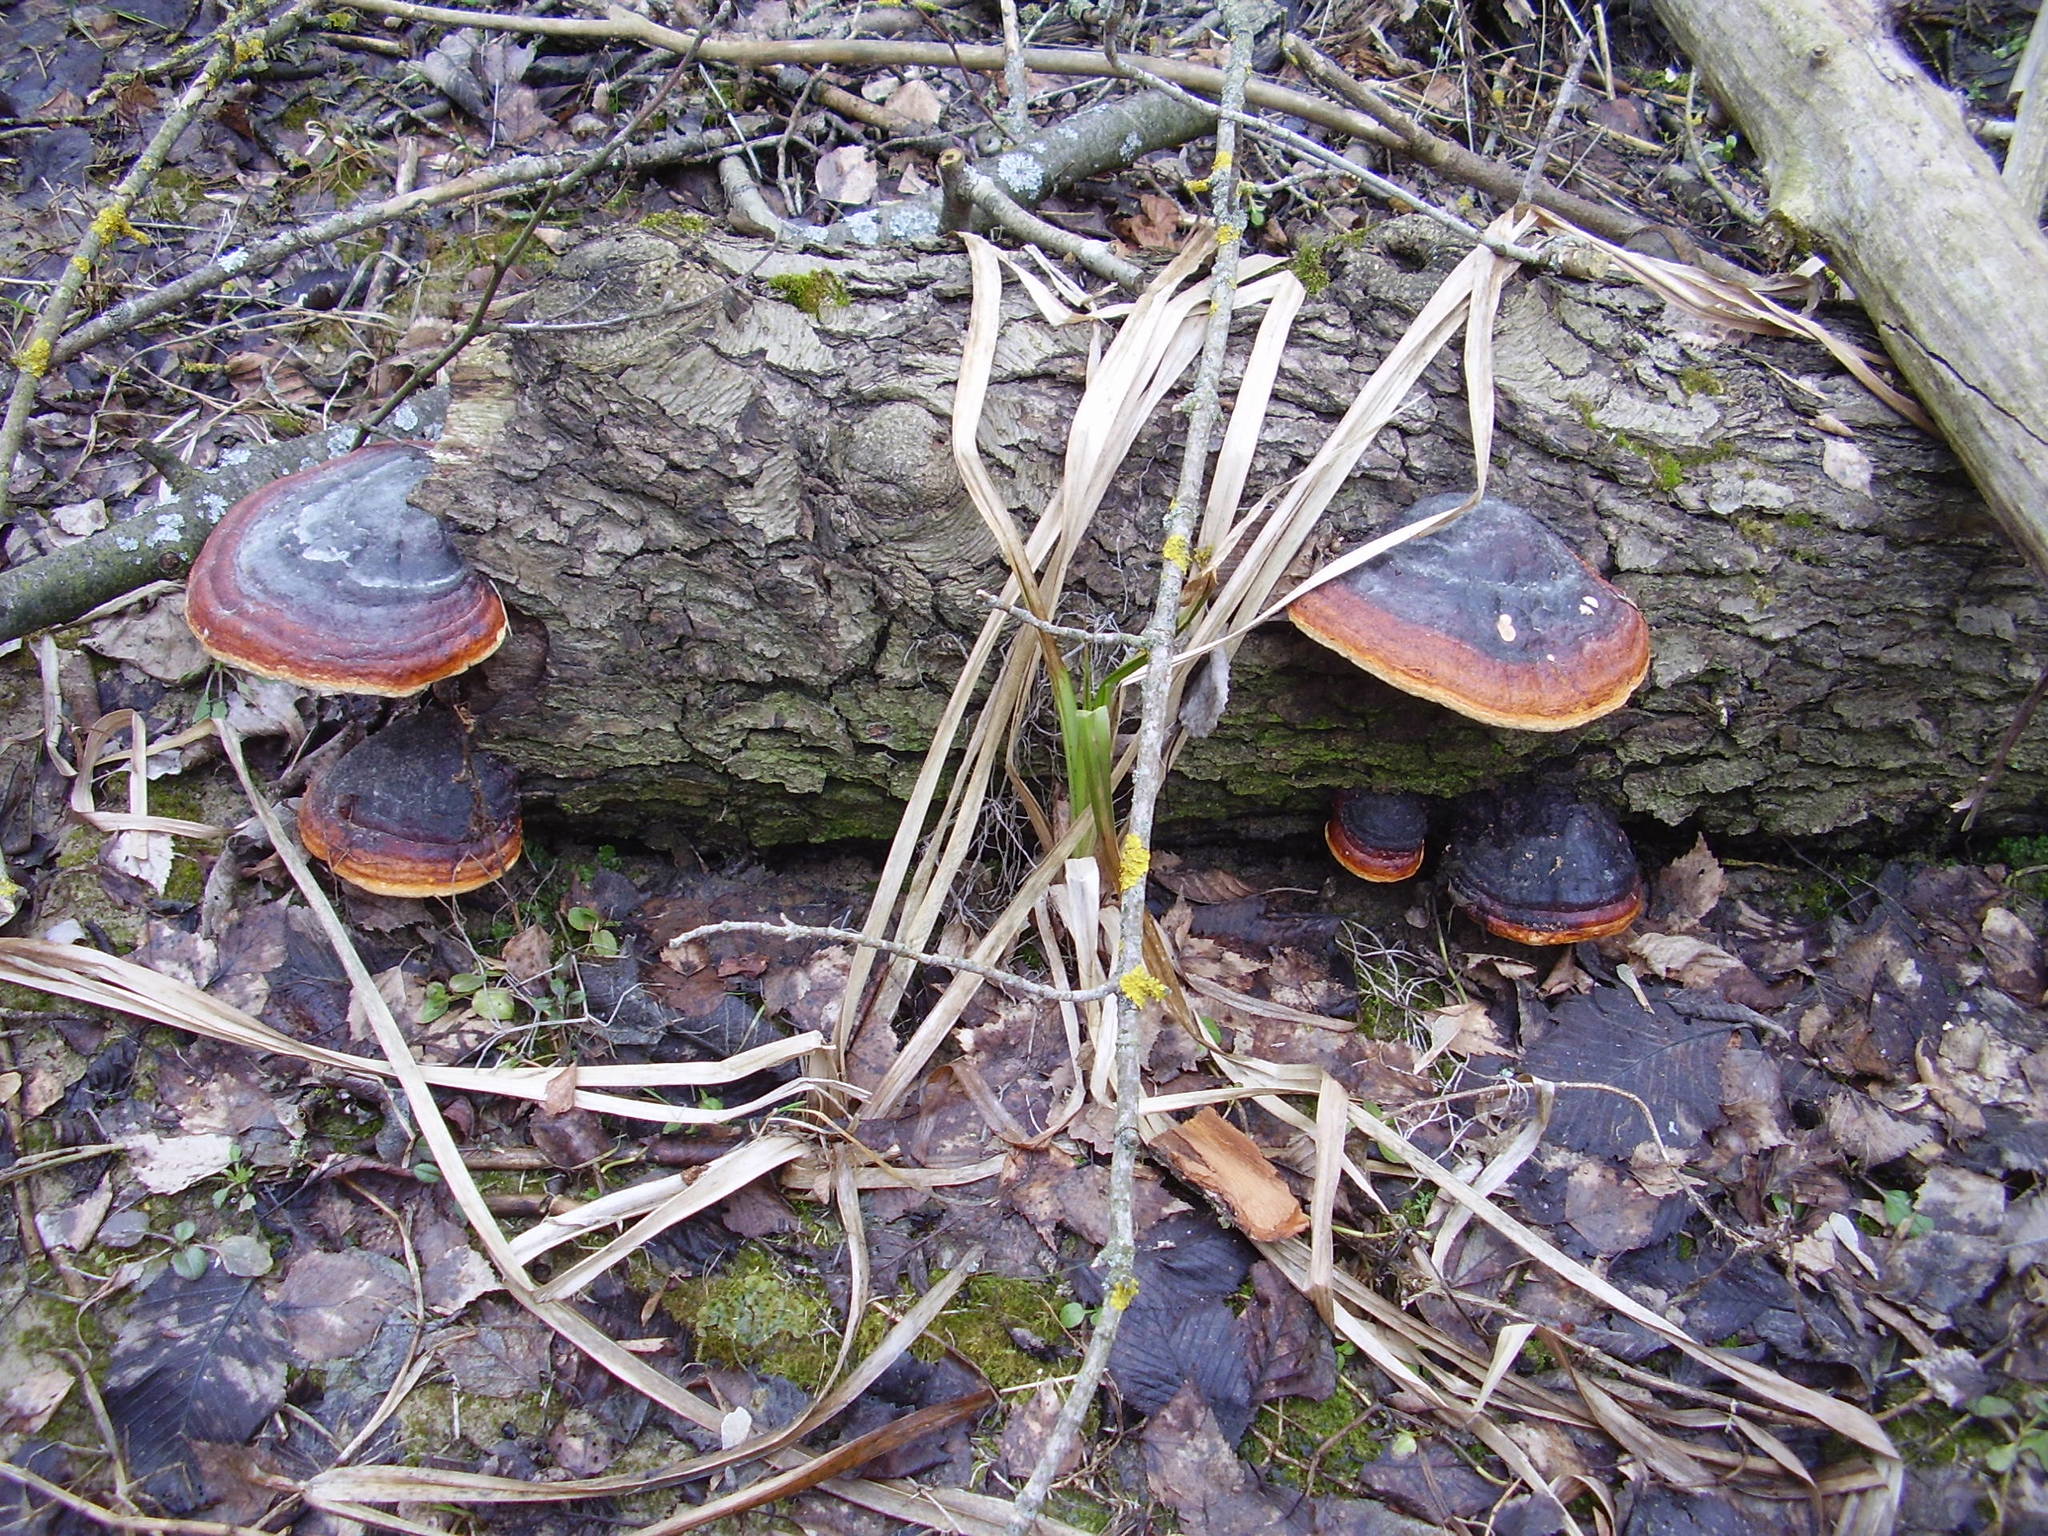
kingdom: Fungi
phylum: Basidiomycota
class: Agaricomycetes
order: Polyporales
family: Fomitopsidaceae
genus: Fomitopsis
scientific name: Fomitopsis pinicola
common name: Red-belted bracket
